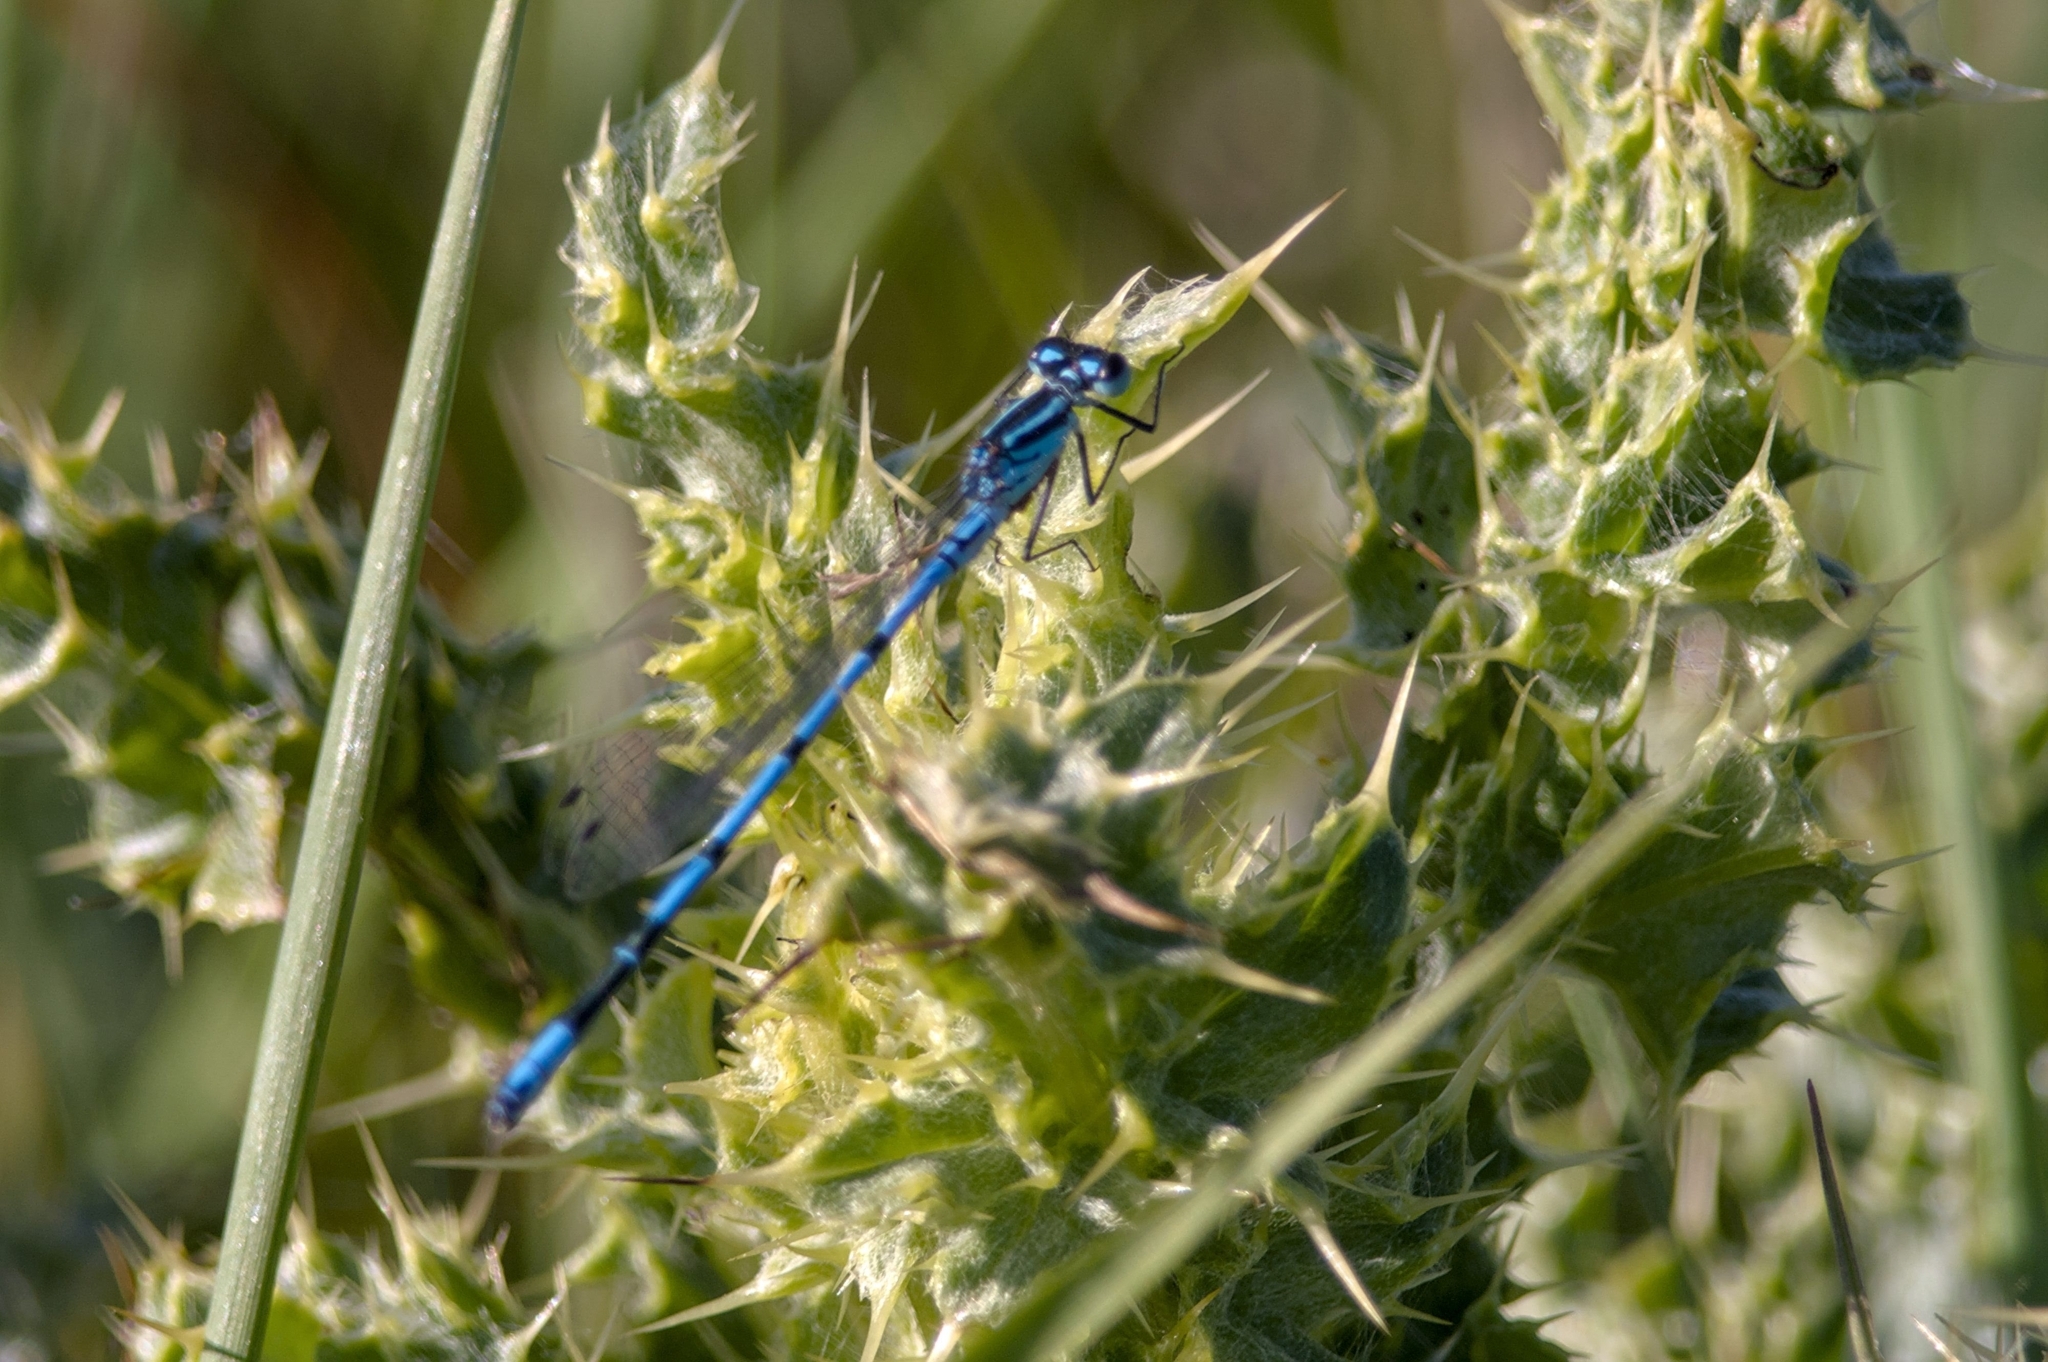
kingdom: Animalia
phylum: Arthropoda
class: Insecta
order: Odonata
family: Coenagrionidae
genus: Coenagrion
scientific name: Coenagrion puella
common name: Azure damselfly
